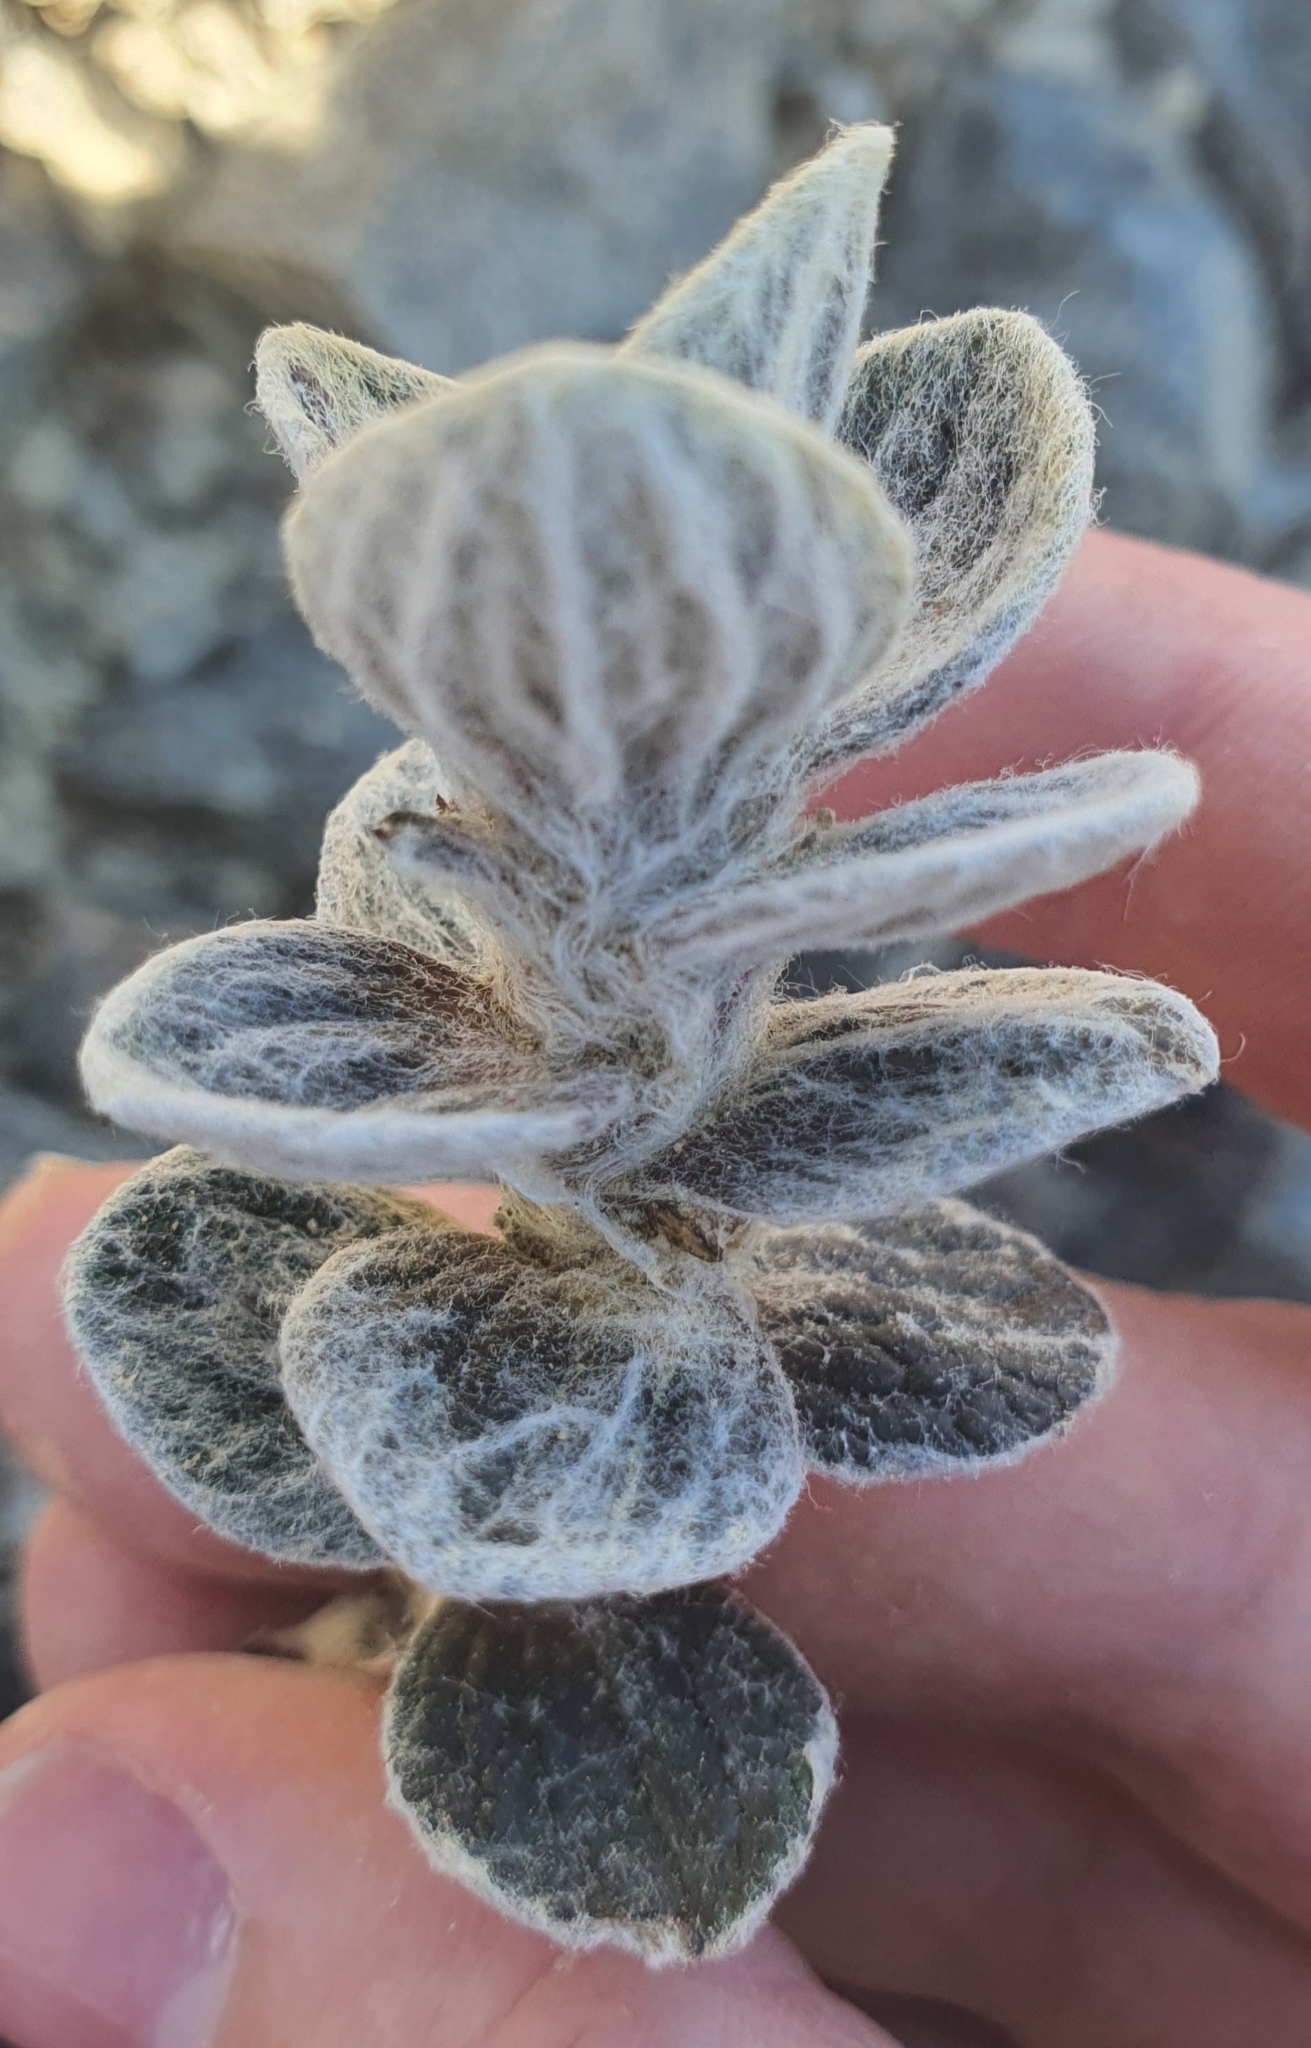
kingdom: Plantae
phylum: Tracheophyta
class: Magnoliopsida
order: Asterales
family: Asteraceae
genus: Haastia
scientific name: Haastia sinclairii
